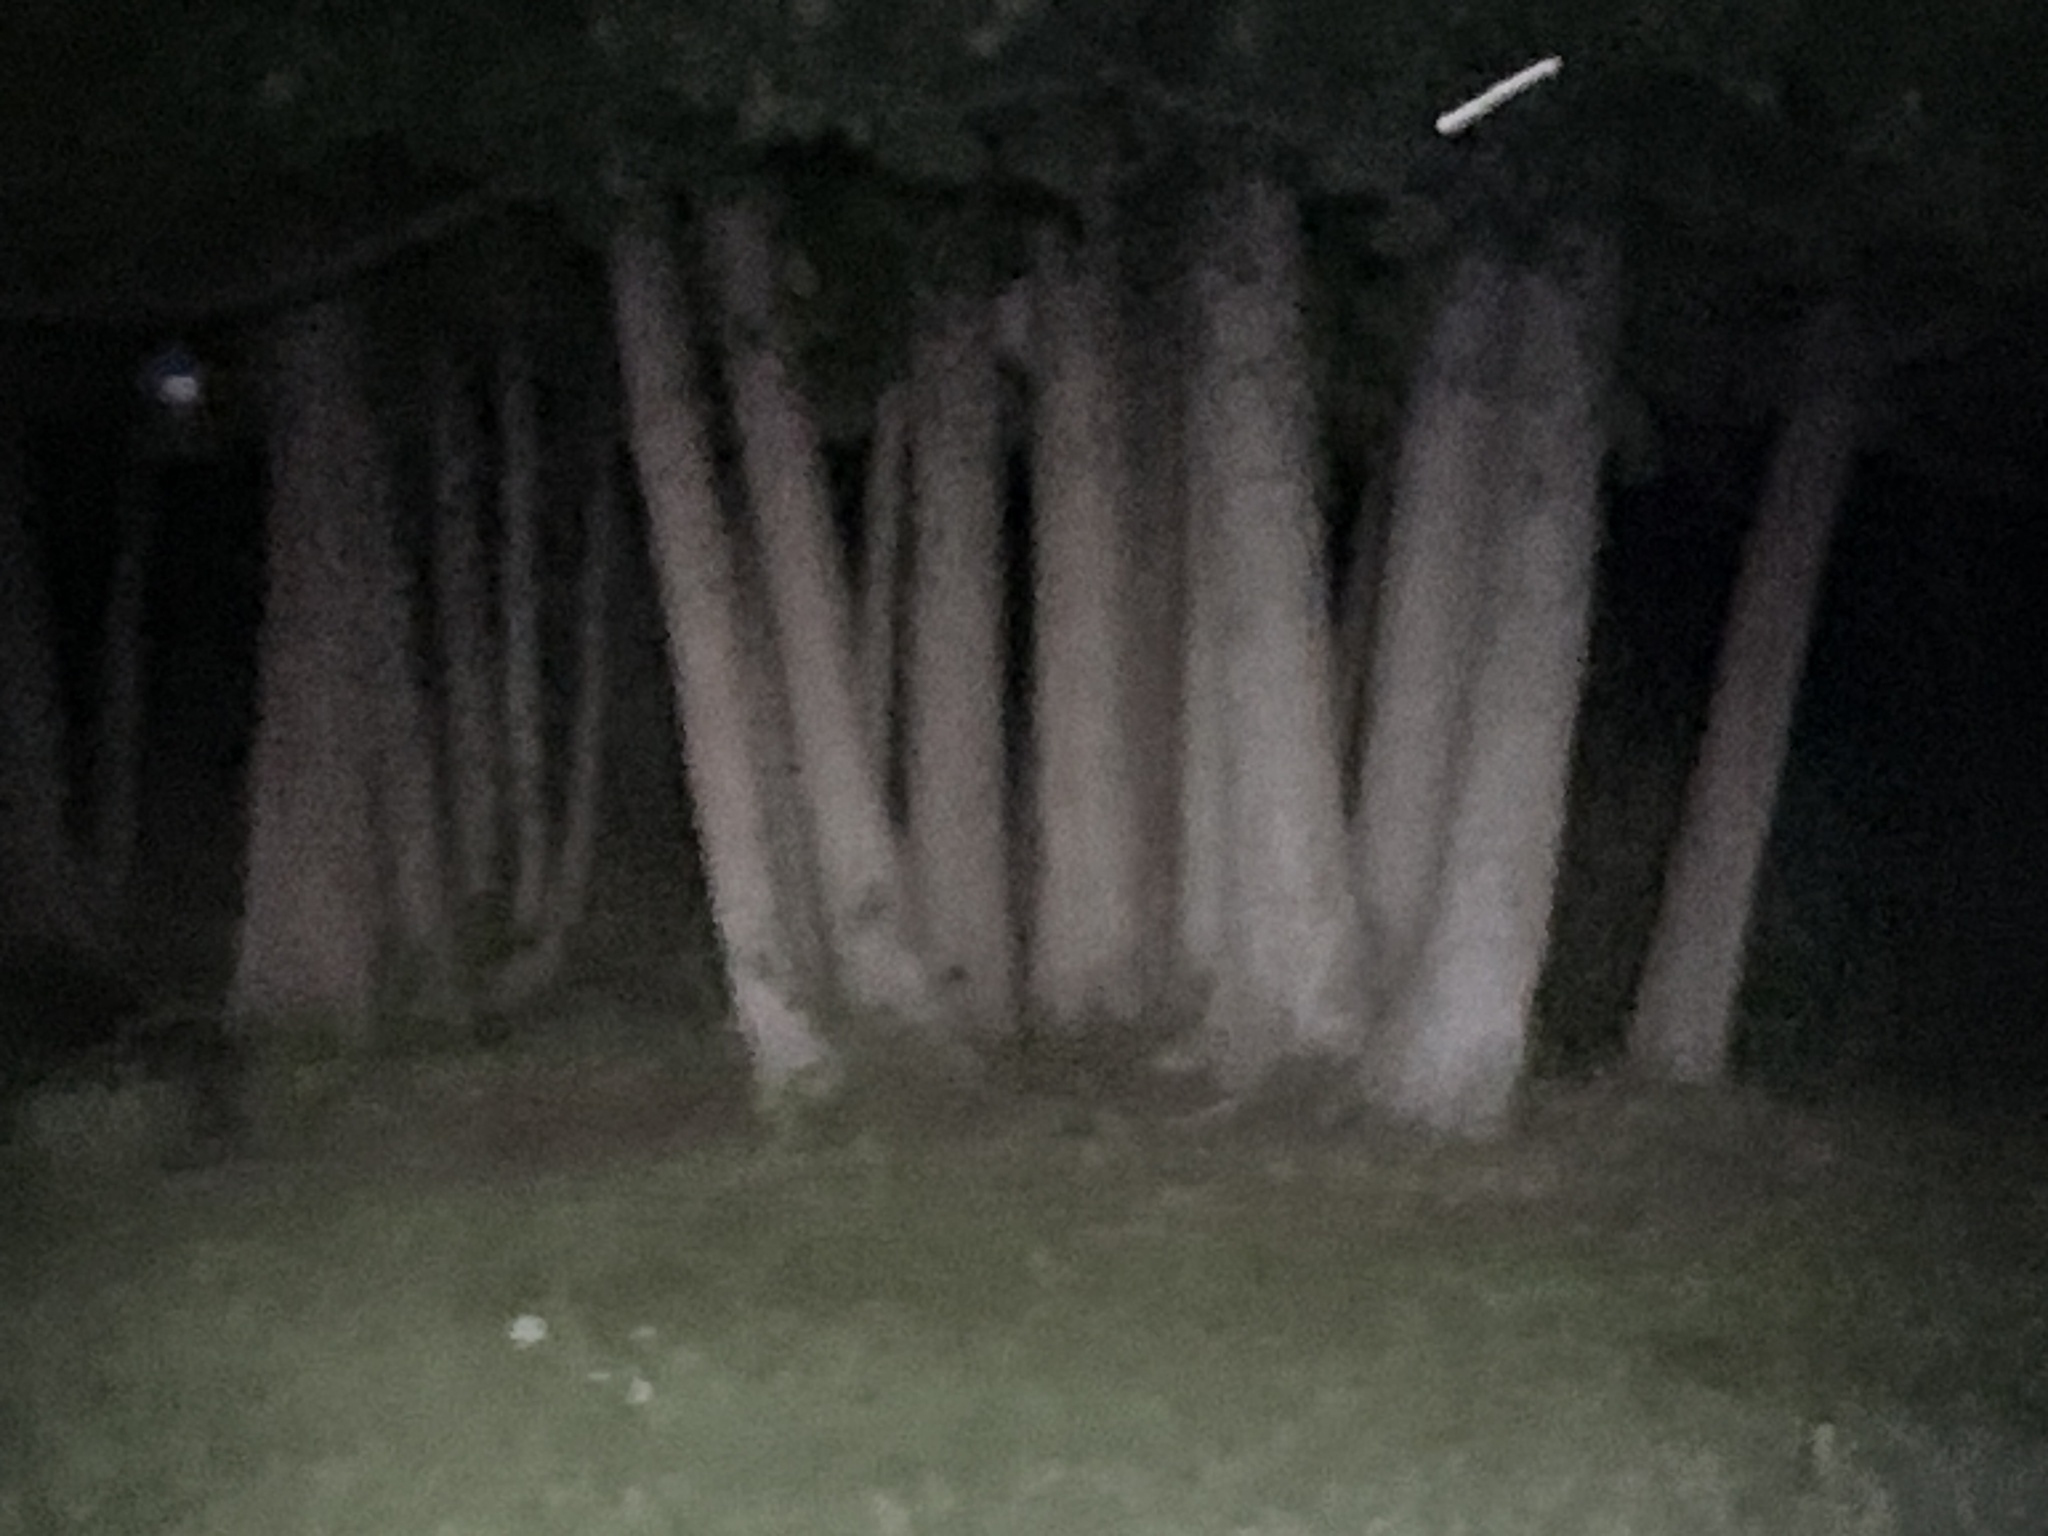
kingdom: Animalia
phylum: Chordata
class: Mammalia
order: Carnivora
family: Procyonidae
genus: Procyon
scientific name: Procyon lotor
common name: Raccoon
